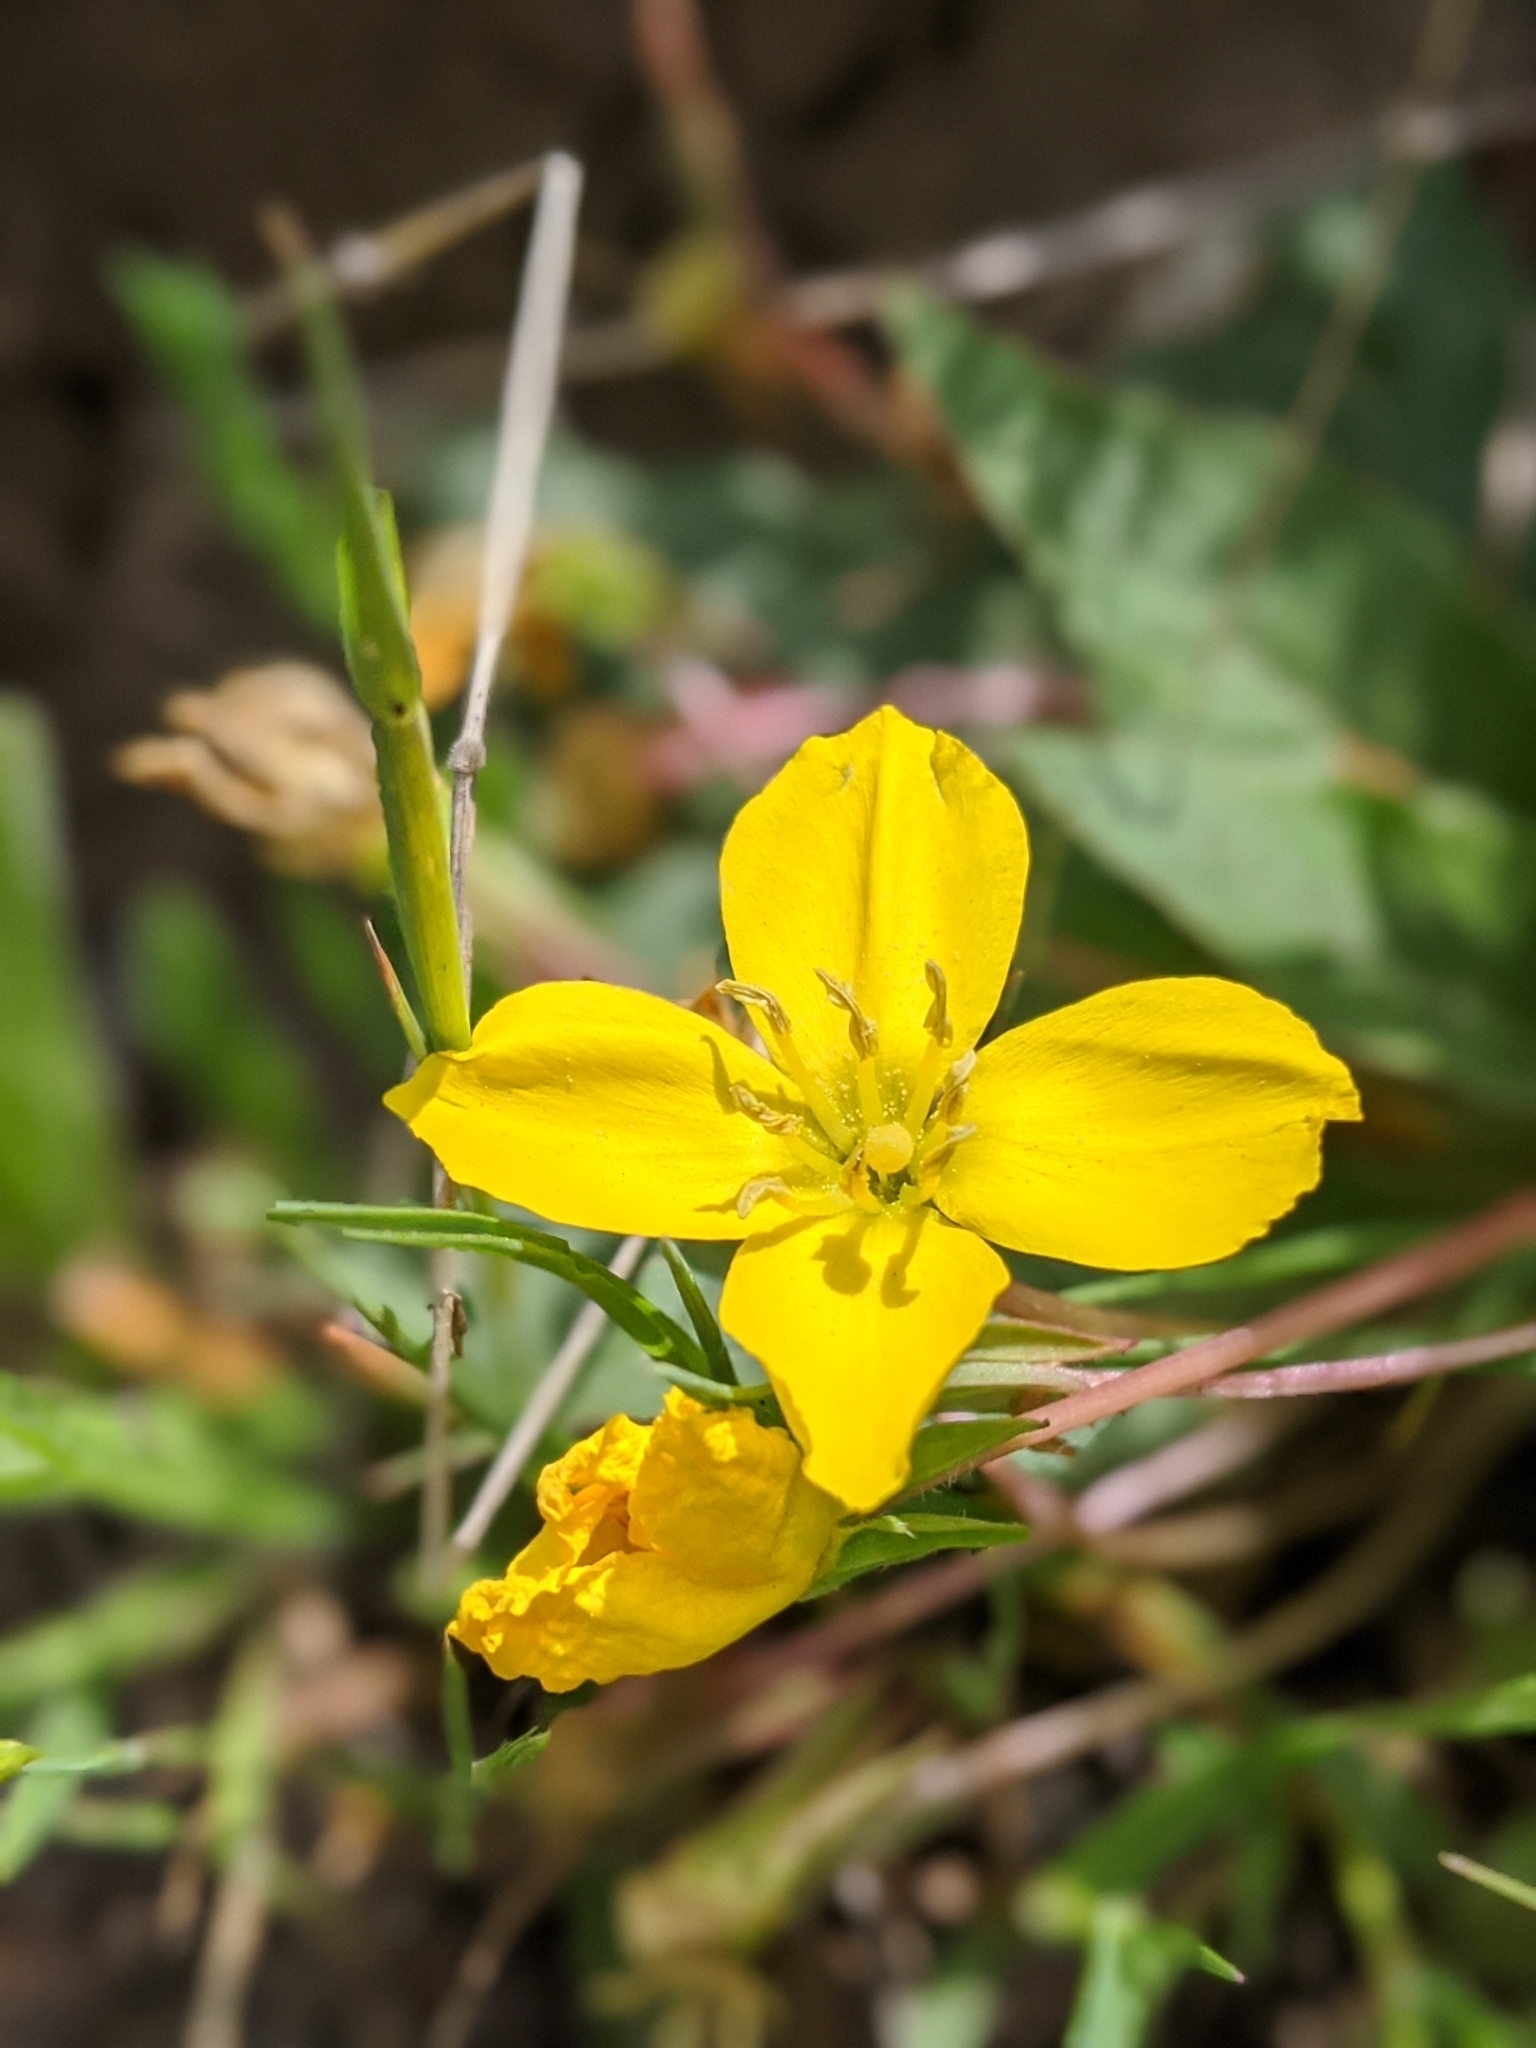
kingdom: Plantae
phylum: Tracheophyta
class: Magnoliopsida
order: Myrtales
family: Onagraceae
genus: Taraxia
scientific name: Taraxia ovata
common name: Goldeneggs
